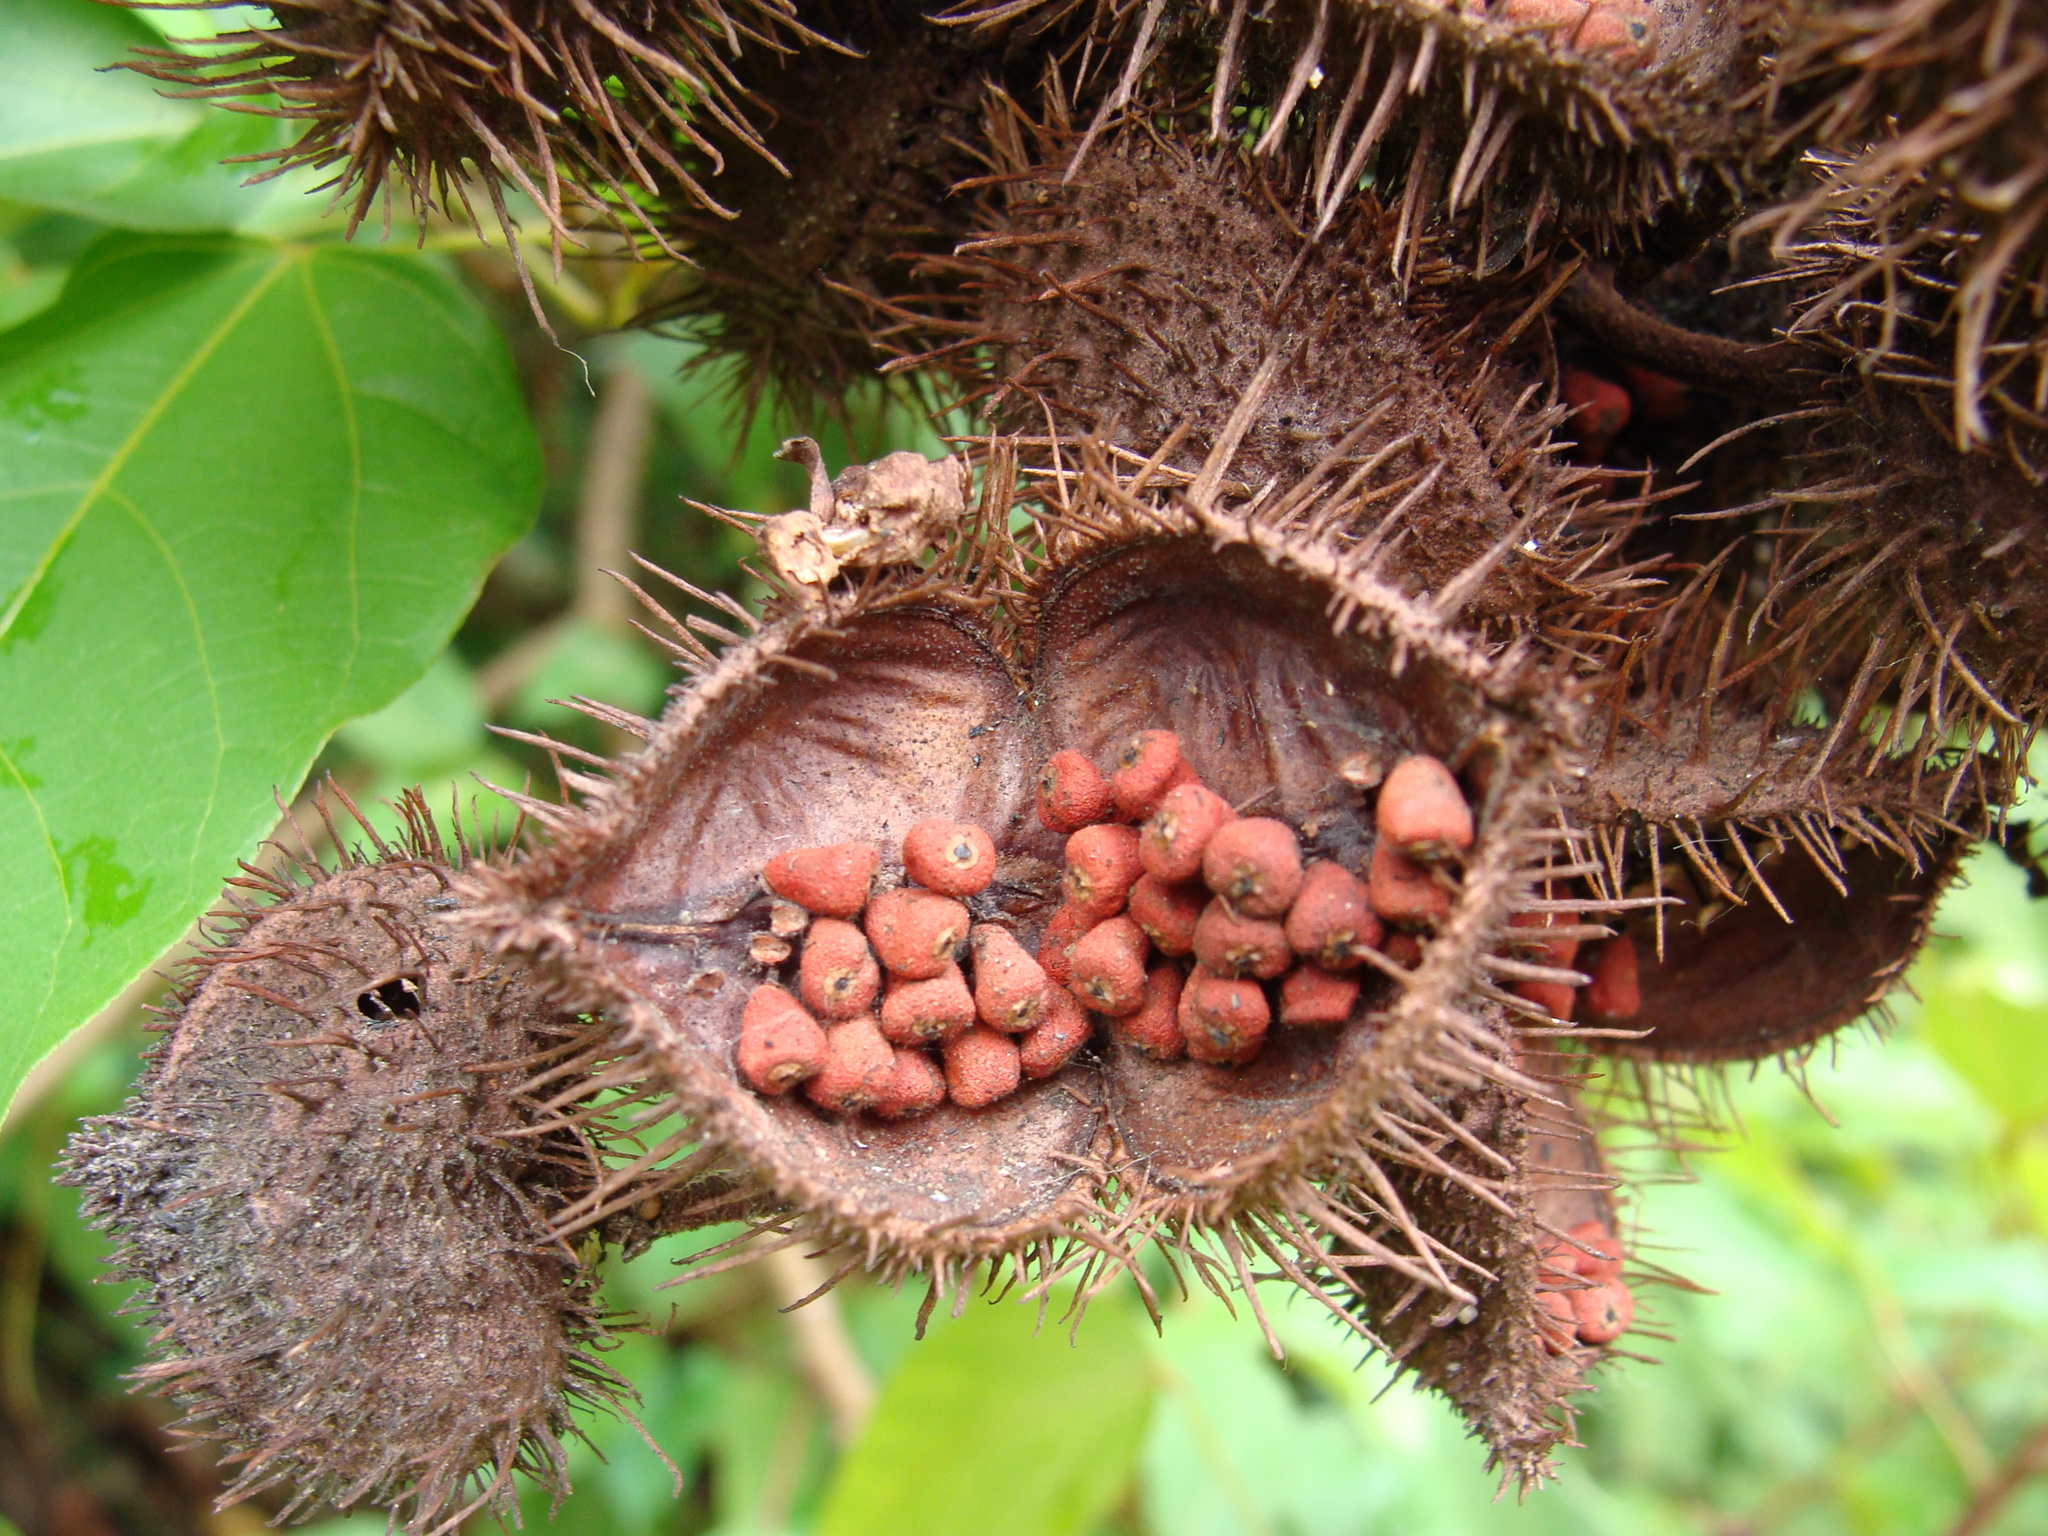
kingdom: Plantae
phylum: Tracheophyta
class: Magnoliopsida
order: Malvales
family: Bixaceae
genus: Bixa
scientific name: Bixa orellana
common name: Lipsticktree
